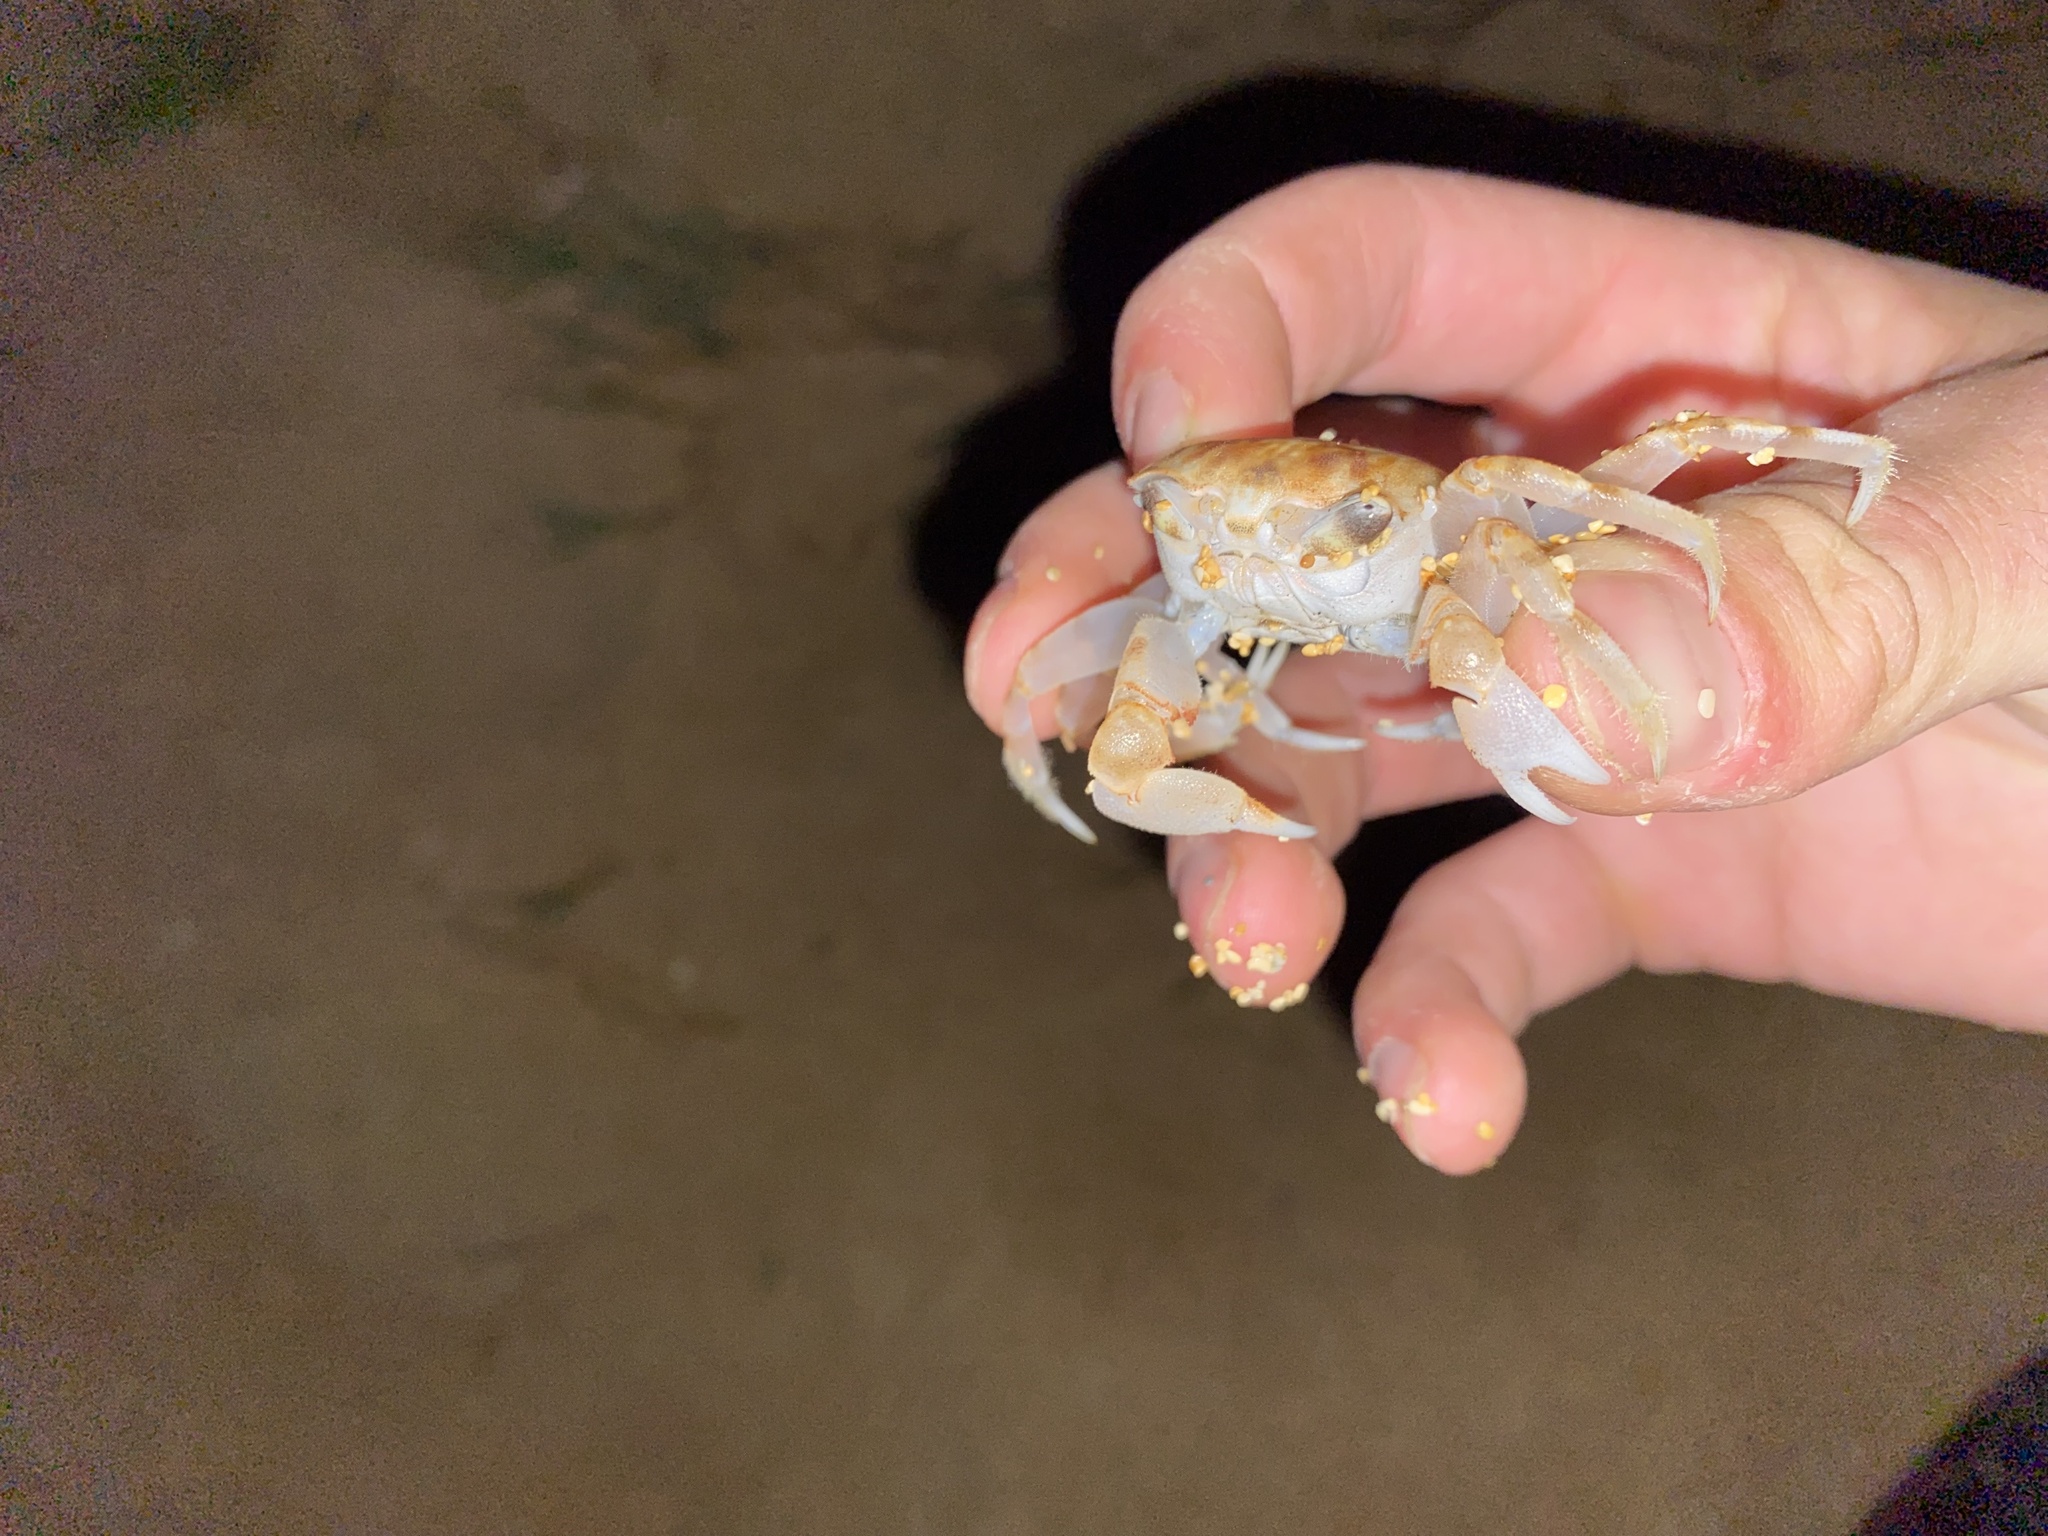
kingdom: Animalia
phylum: Arthropoda
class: Malacostraca
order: Decapoda
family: Ocypodidae
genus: Ocypode
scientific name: Ocypode pallidula
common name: Pallid ghost crab
